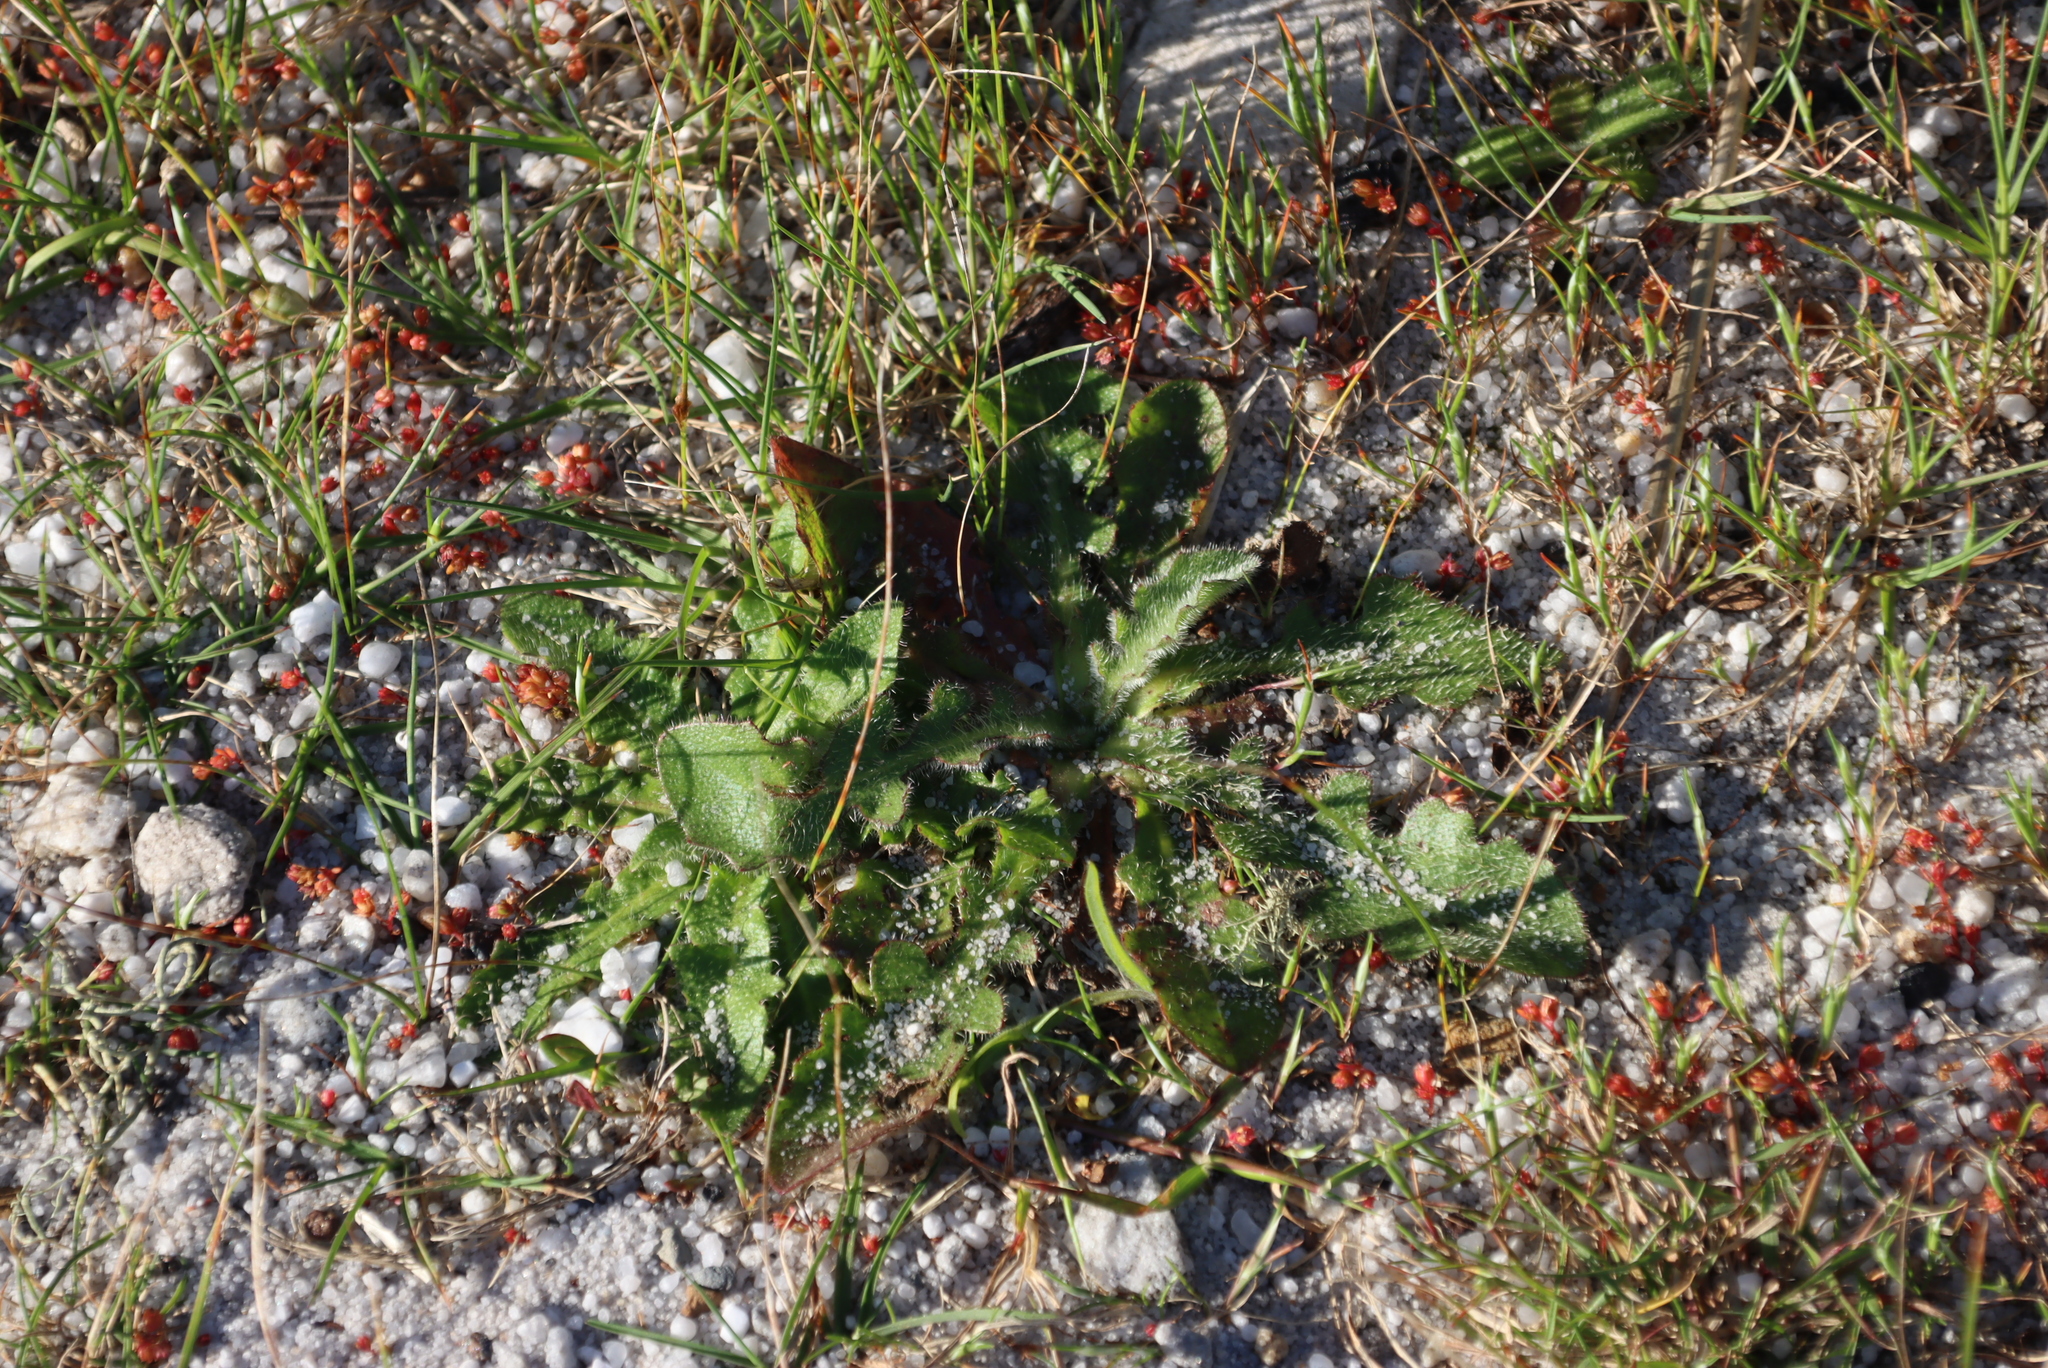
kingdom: Plantae
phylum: Tracheophyta
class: Magnoliopsida
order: Asterales
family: Asteraceae
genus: Hypochaeris
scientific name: Hypochaeris radicata
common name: Flatweed
